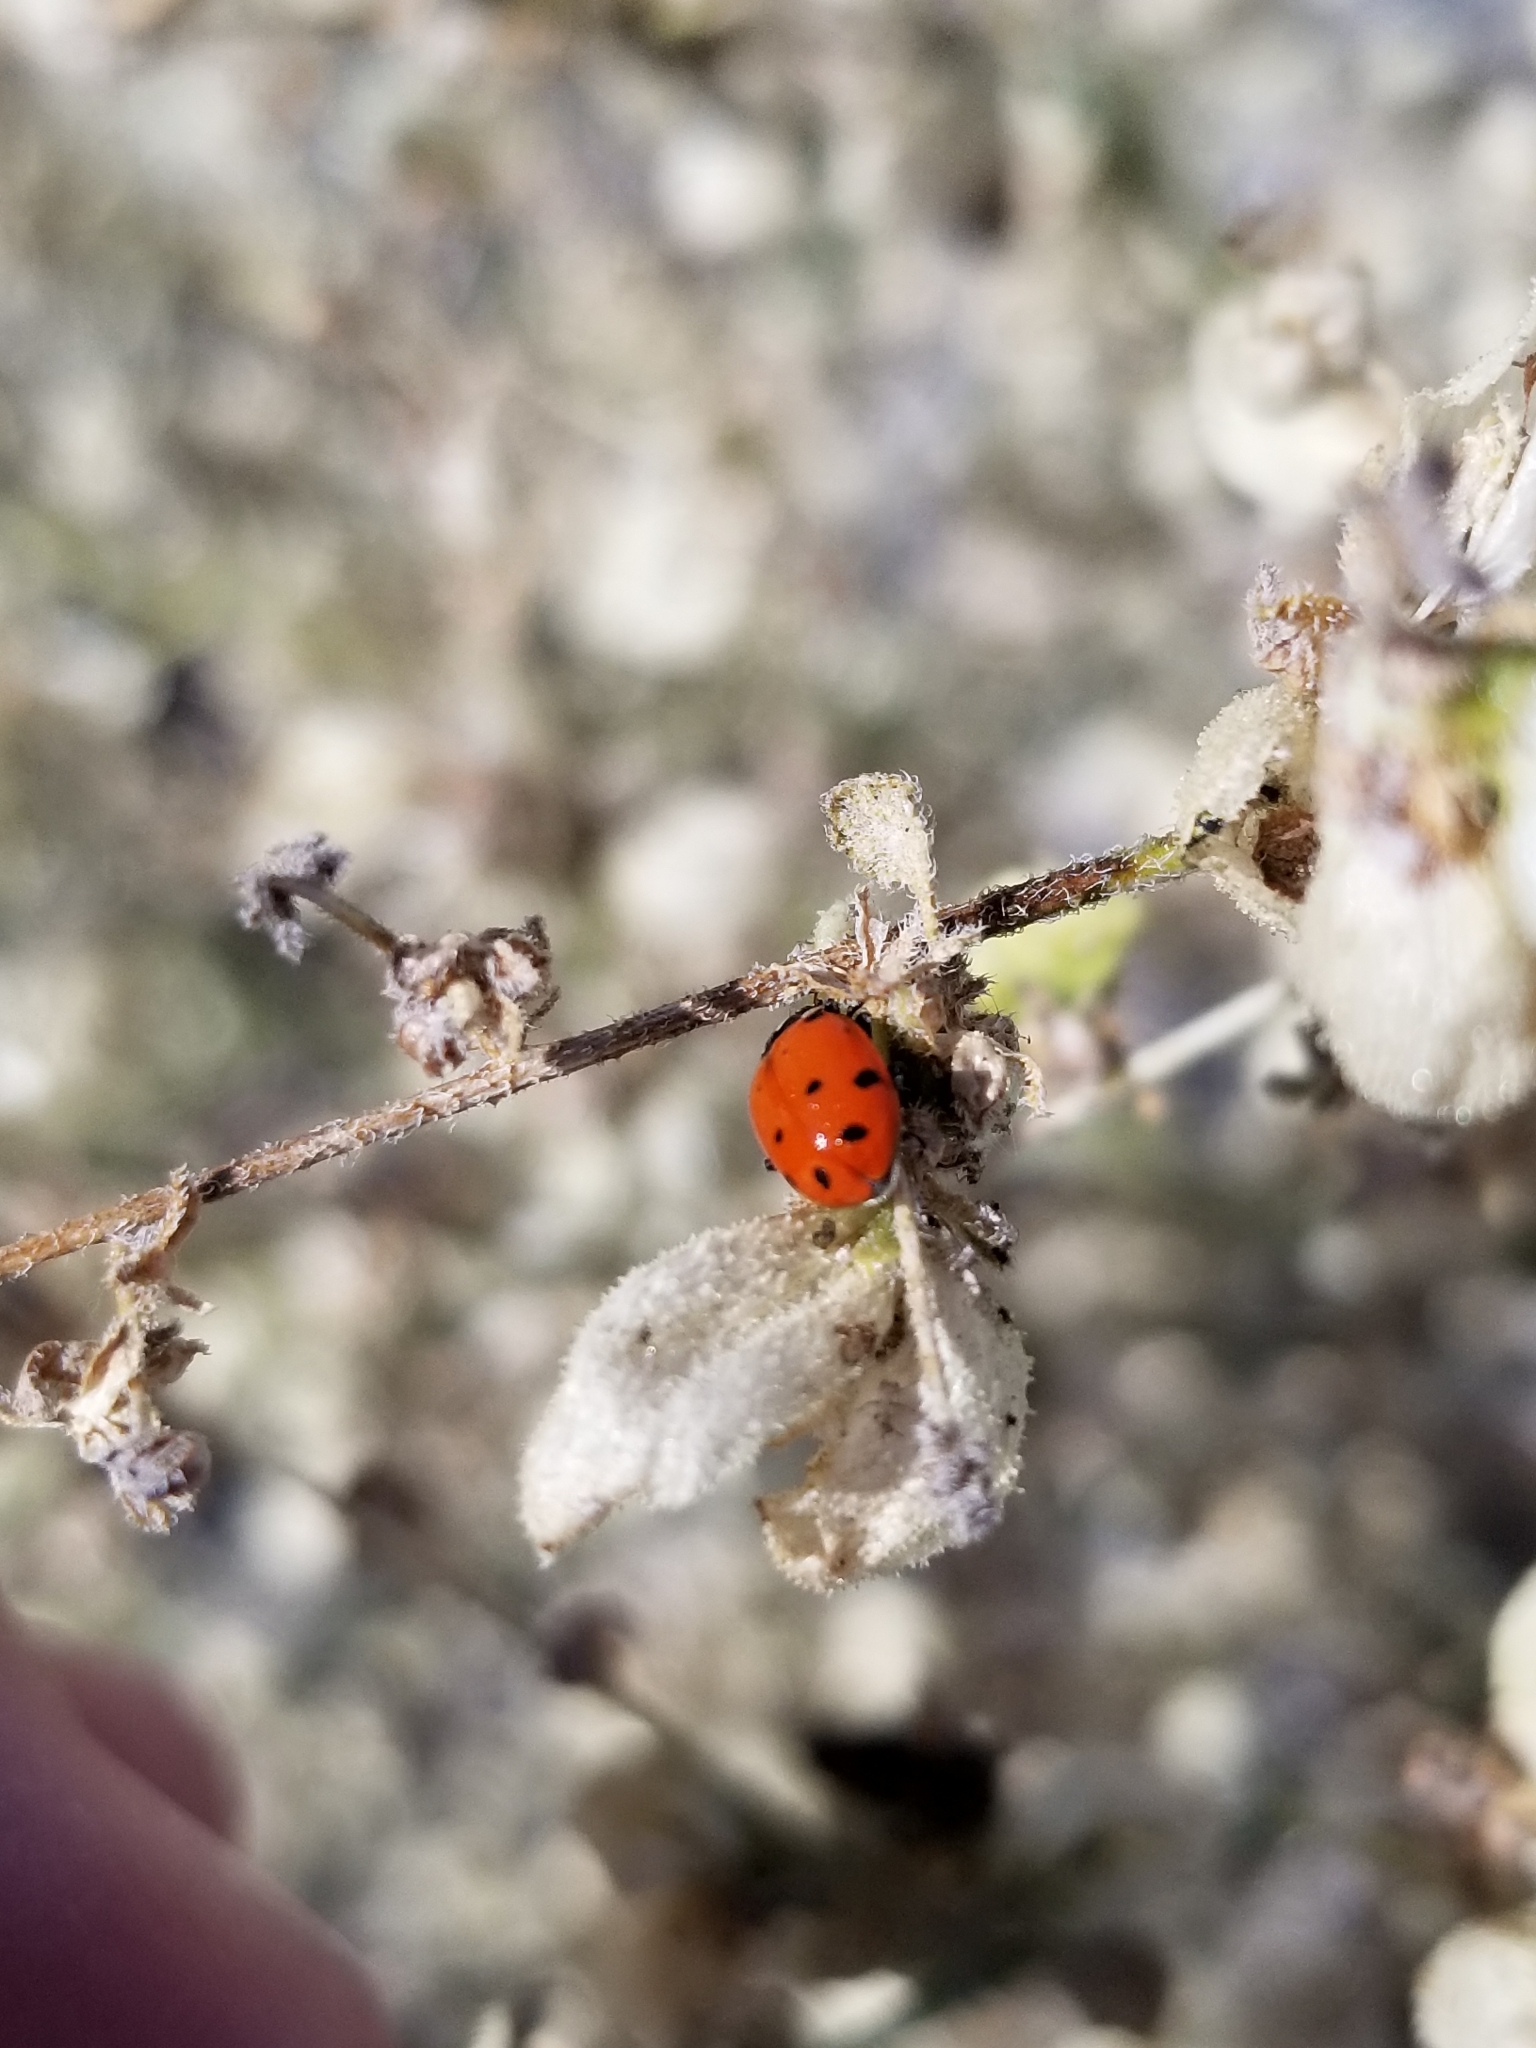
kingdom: Animalia
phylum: Arthropoda
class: Insecta
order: Coleoptera
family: Coccinellidae
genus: Hippodamia
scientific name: Hippodamia convergens
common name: Convergent lady beetle
